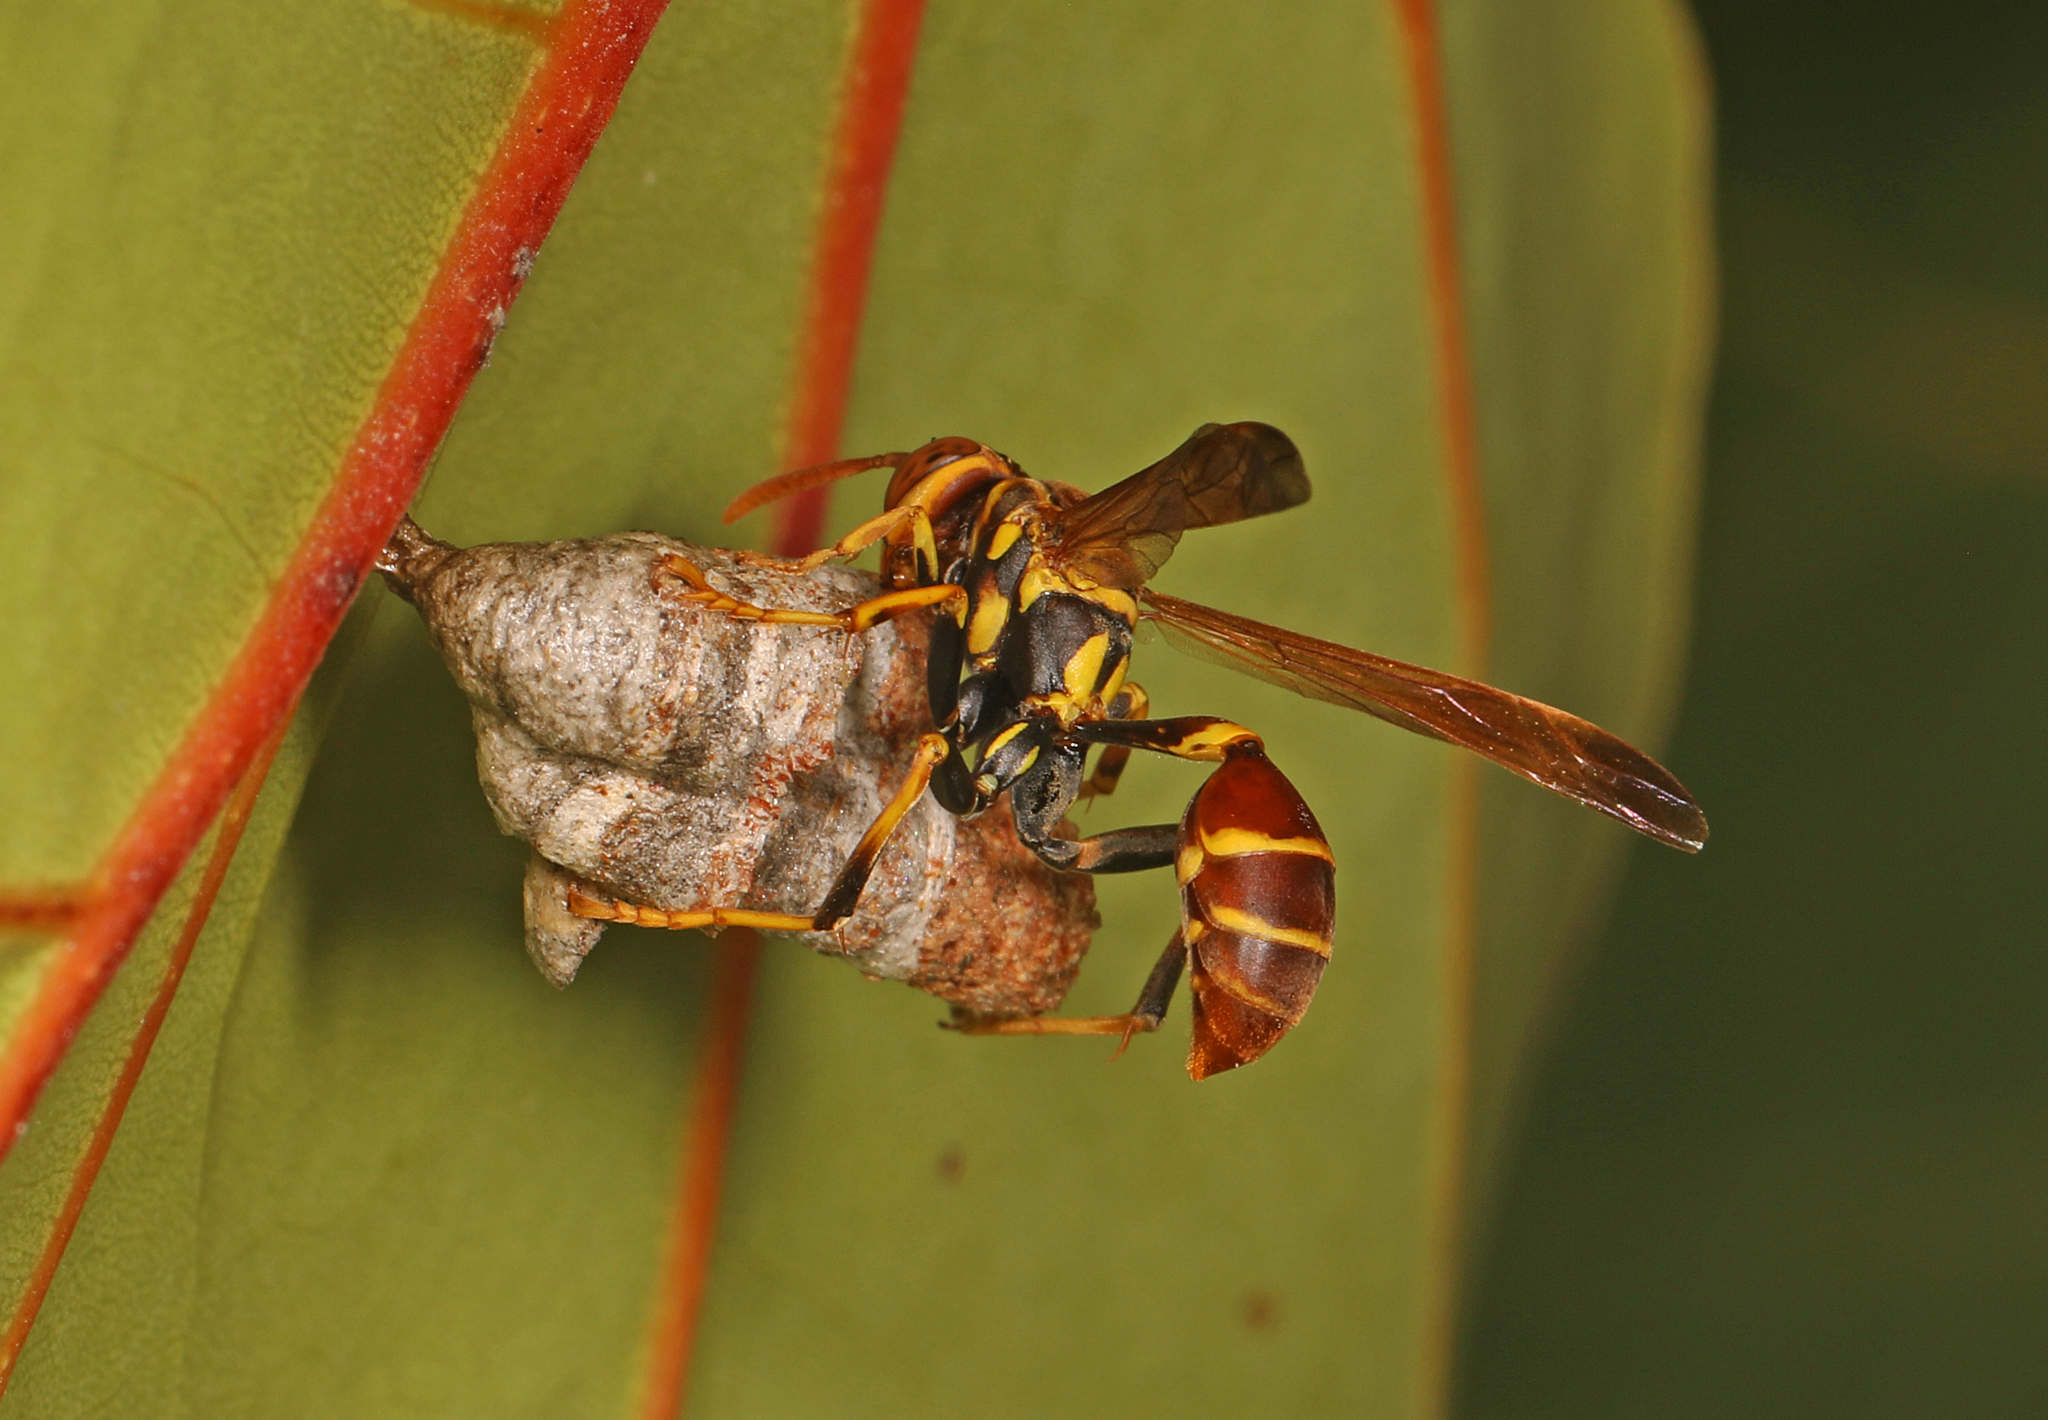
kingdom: Animalia
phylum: Arthropoda
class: Insecta
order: Hymenoptera
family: Vespidae
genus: Mischocyttarus
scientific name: Mischocyttarus mexicanus
